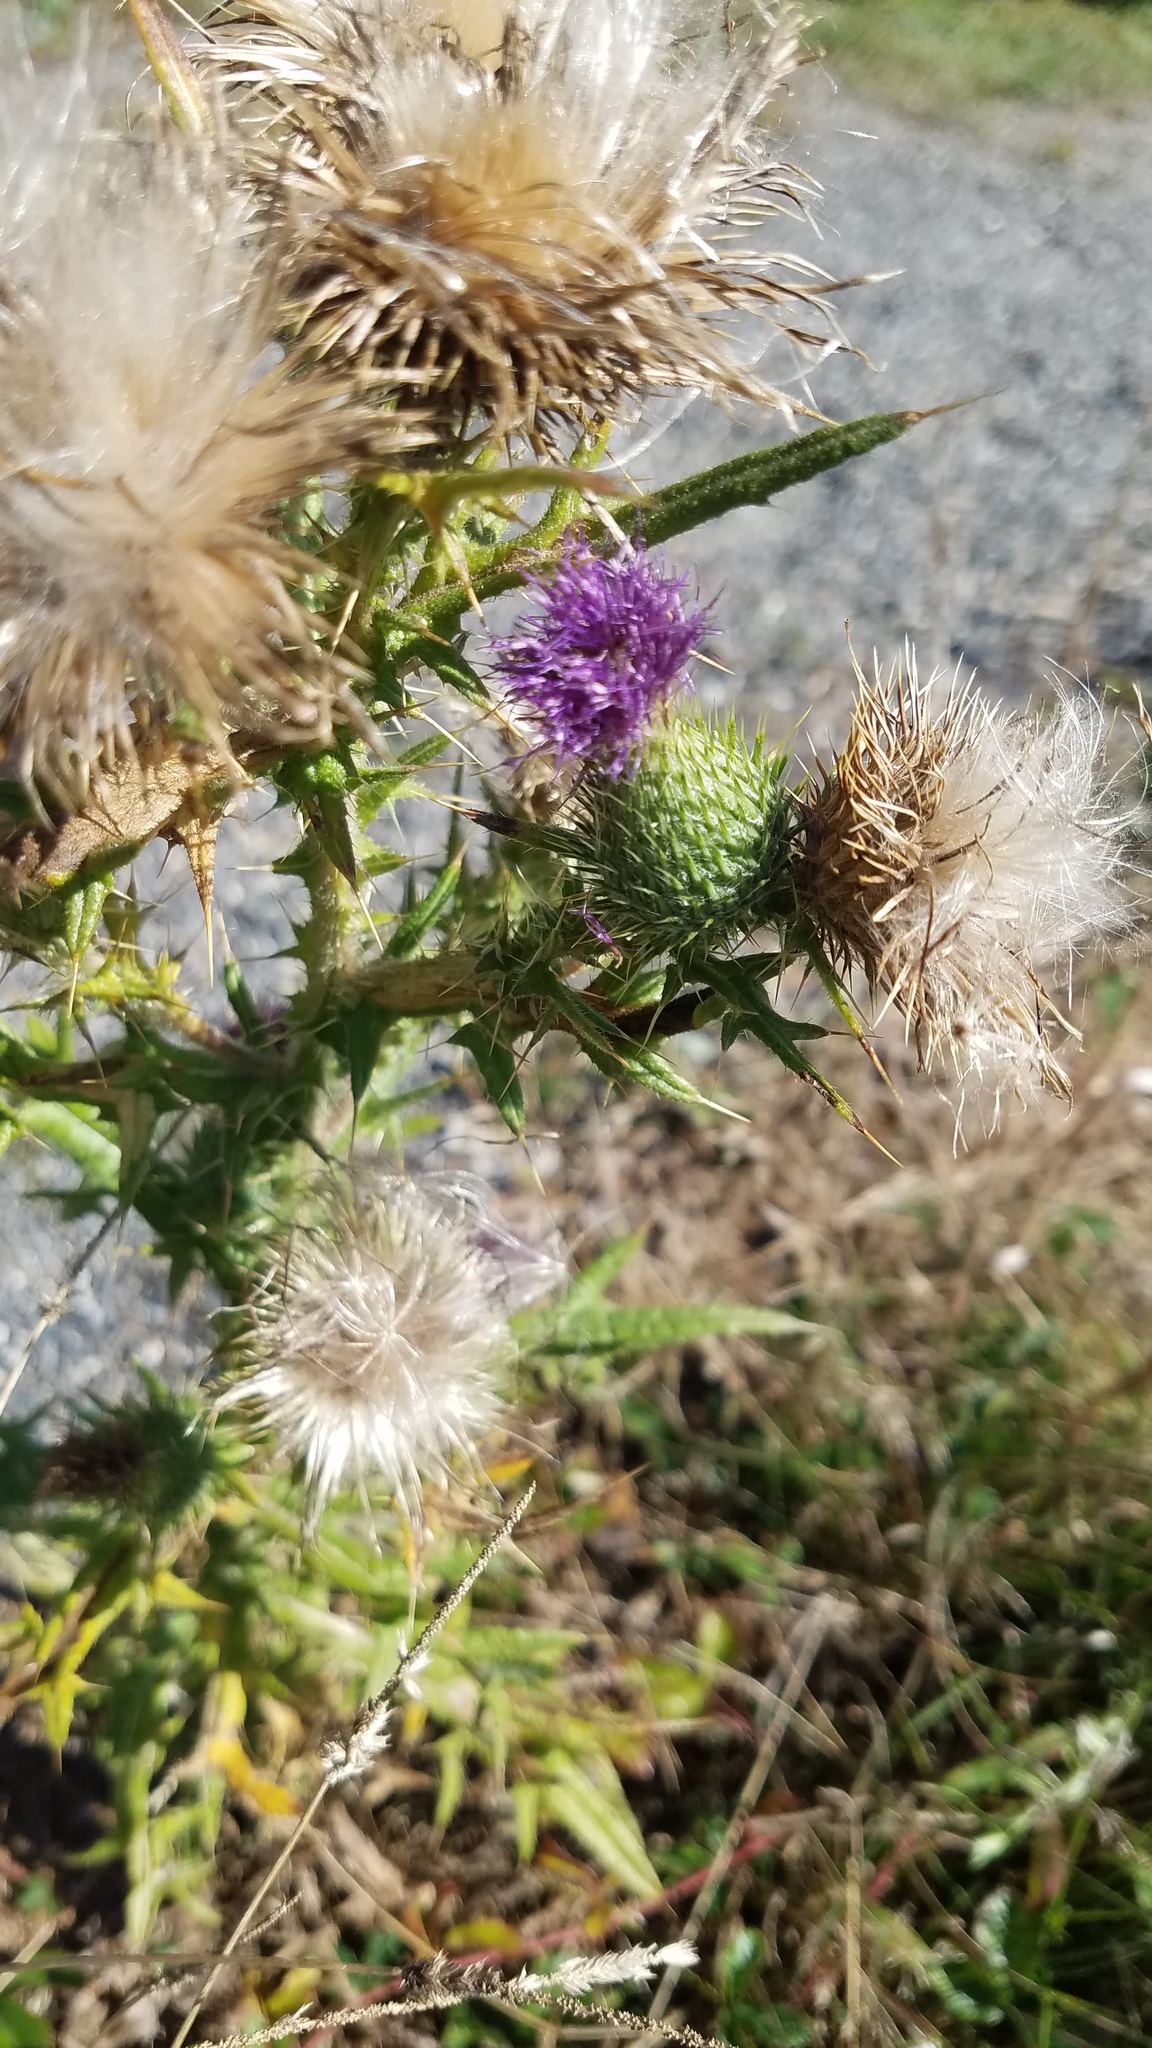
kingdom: Plantae
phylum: Tracheophyta
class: Magnoliopsida
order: Asterales
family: Asteraceae
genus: Cirsium
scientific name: Cirsium vulgare
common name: Bull thistle
